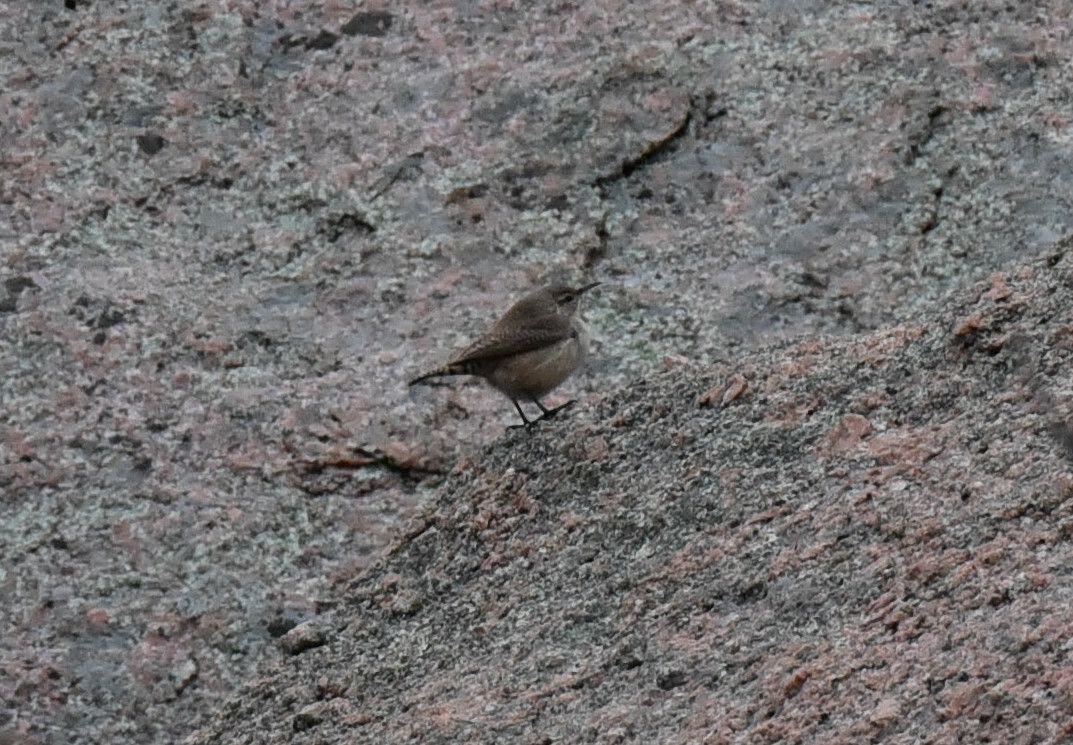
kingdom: Animalia
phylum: Chordata
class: Aves
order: Passeriformes
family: Troglodytidae
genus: Salpinctes
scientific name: Salpinctes obsoletus
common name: Rock wren
